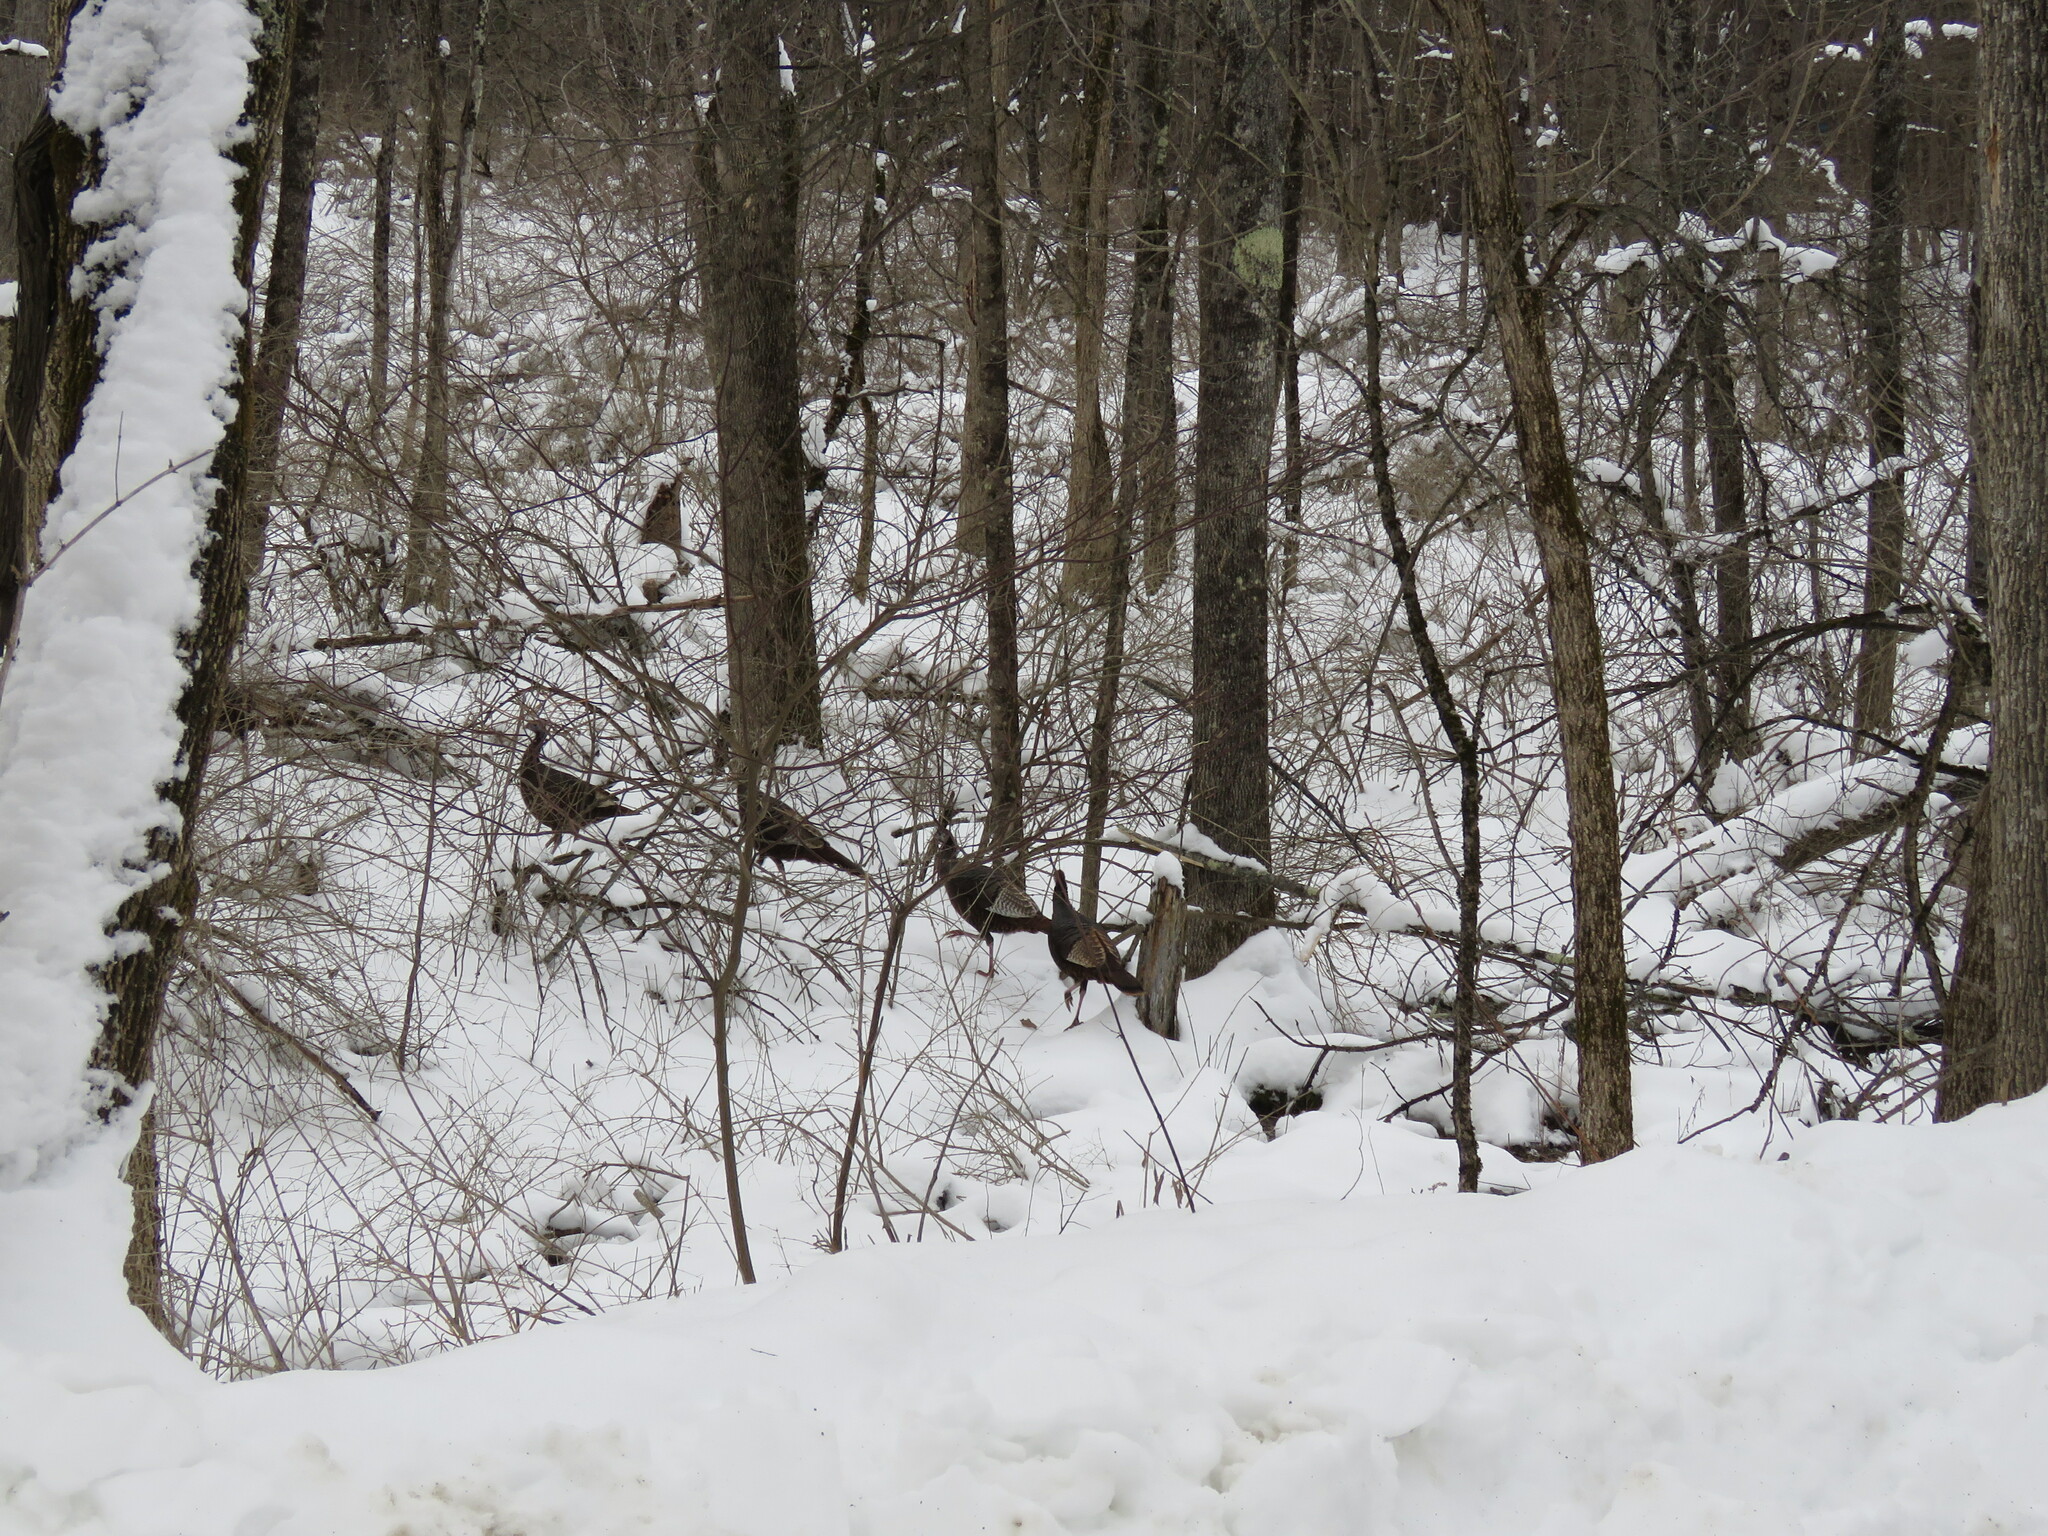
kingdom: Animalia
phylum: Chordata
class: Aves
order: Galliformes
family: Phasianidae
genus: Meleagris
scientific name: Meleagris gallopavo
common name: Wild turkey
